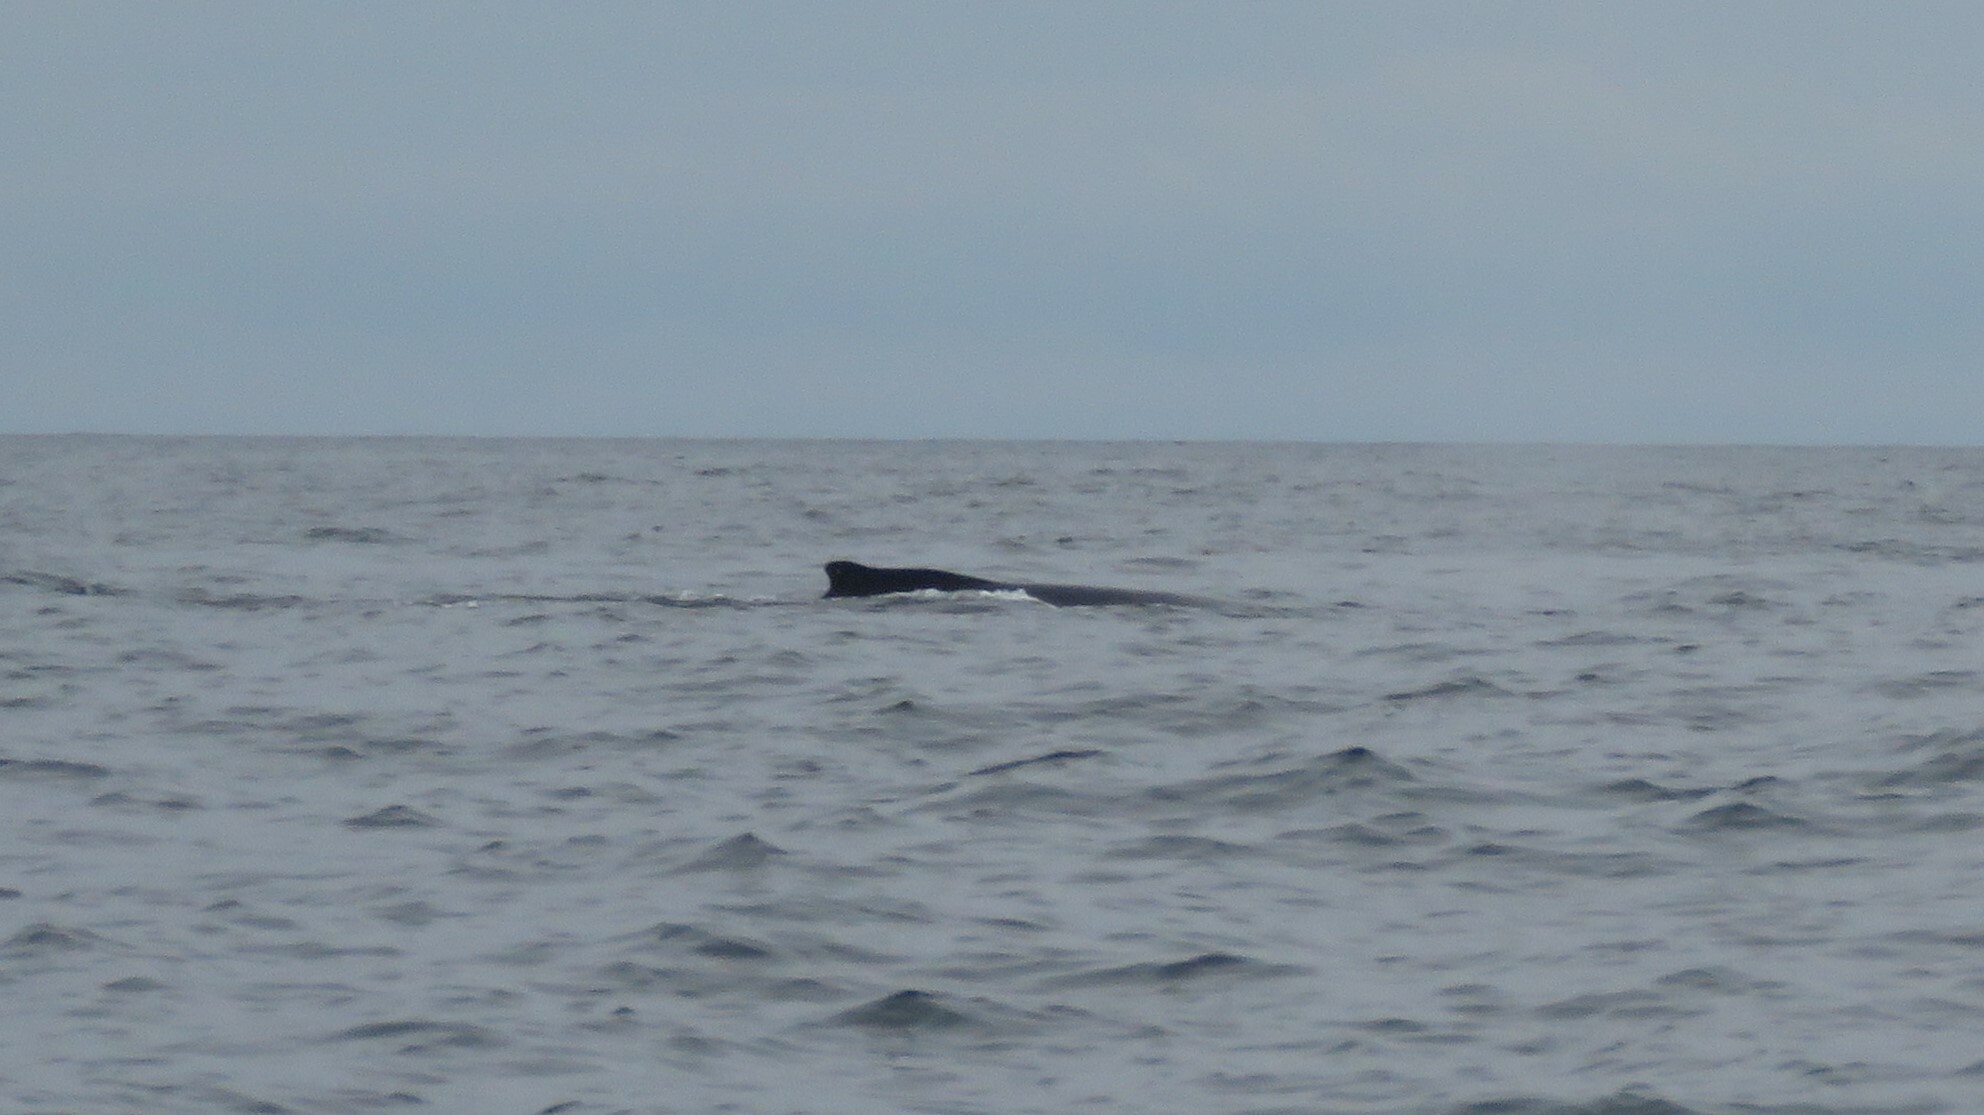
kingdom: Animalia
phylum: Chordata
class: Mammalia
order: Cetacea
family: Balaenopteridae
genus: Megaptera
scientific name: Megaptera novaeangliae
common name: Humpback whale
